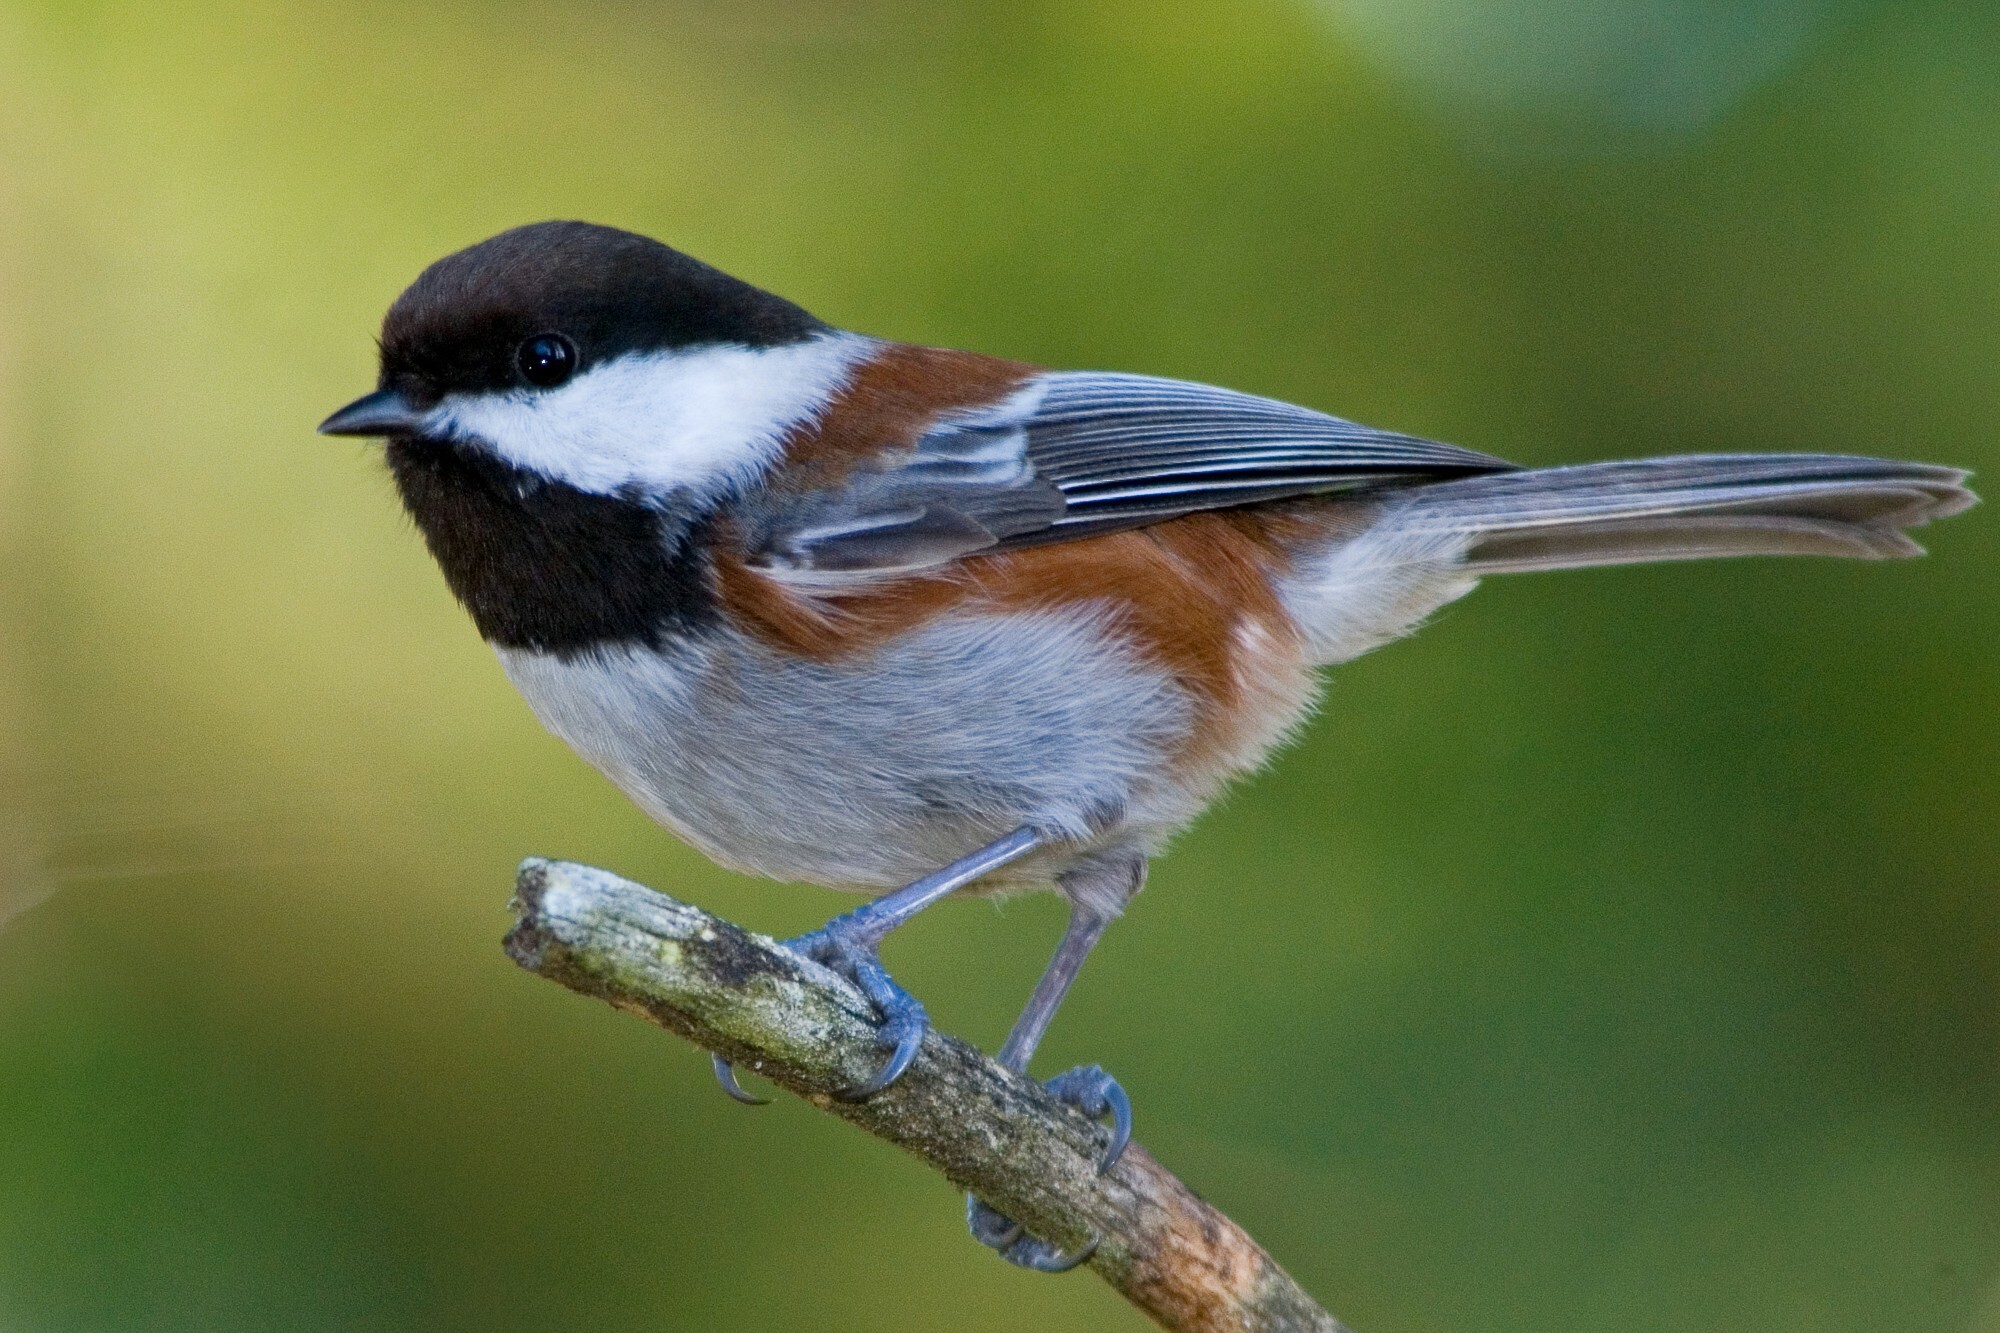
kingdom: Animalia
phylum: Chordata
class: Aves
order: Passeriformes
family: Paridae
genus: Poecile
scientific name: Poecile rufescens
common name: Chestnut-backed chickadee
